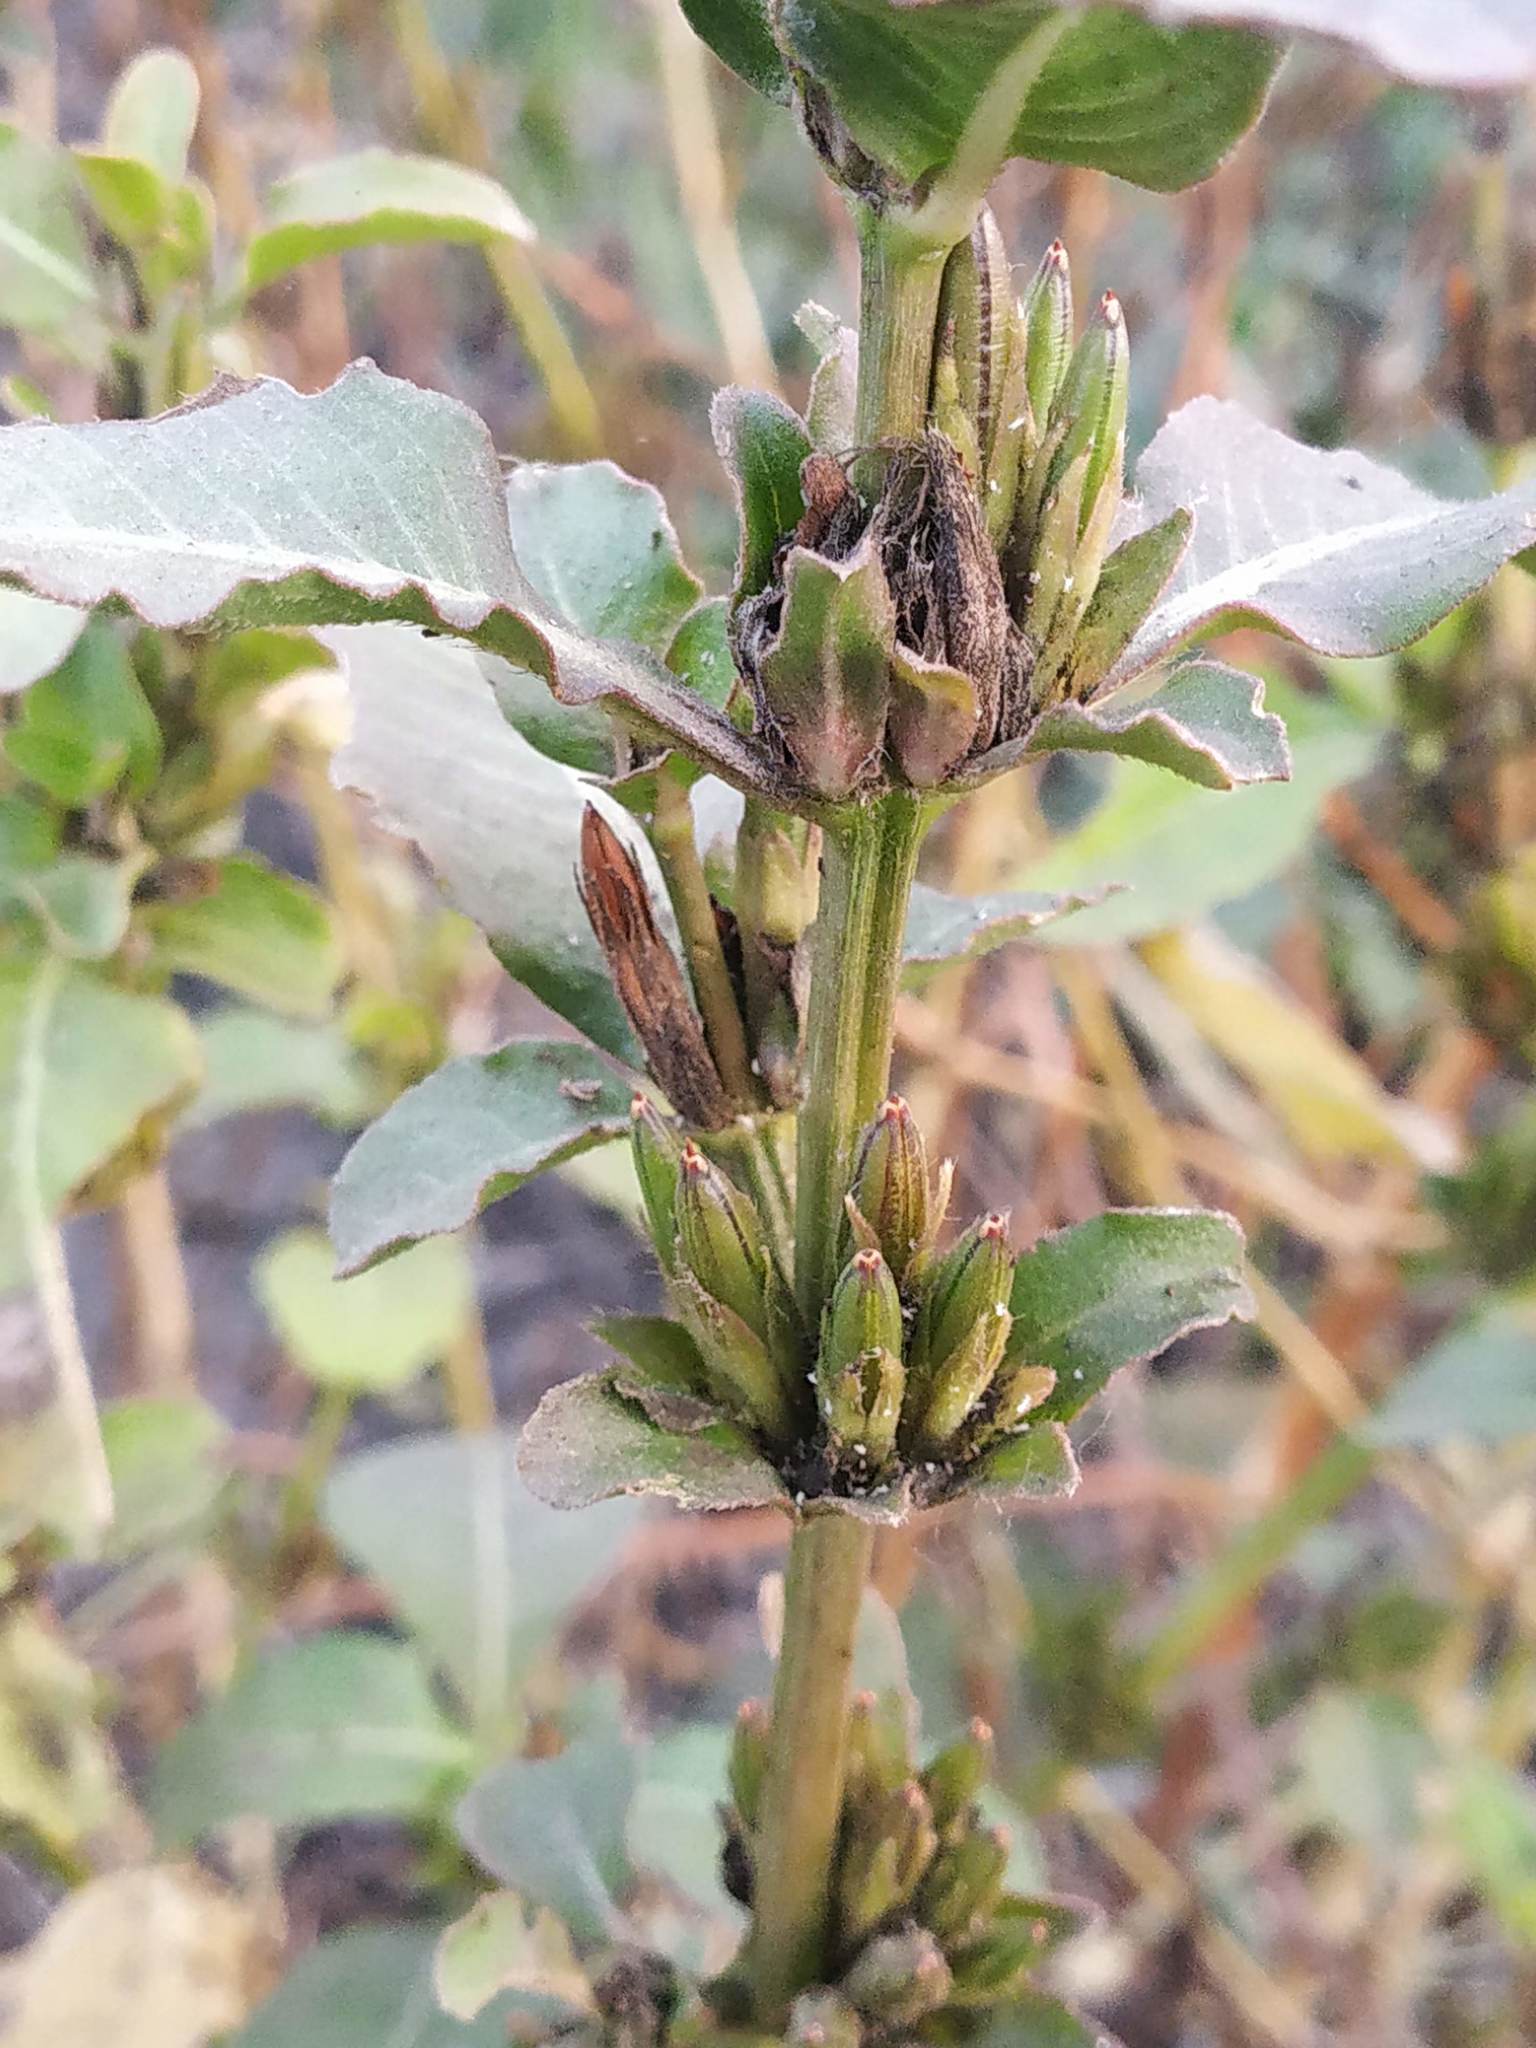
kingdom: Plantae
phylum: Tracheophyta
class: Magnoliopsida
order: Lamiales
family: Acanthaceae
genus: Hygrophila
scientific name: Hygrophila ringens
